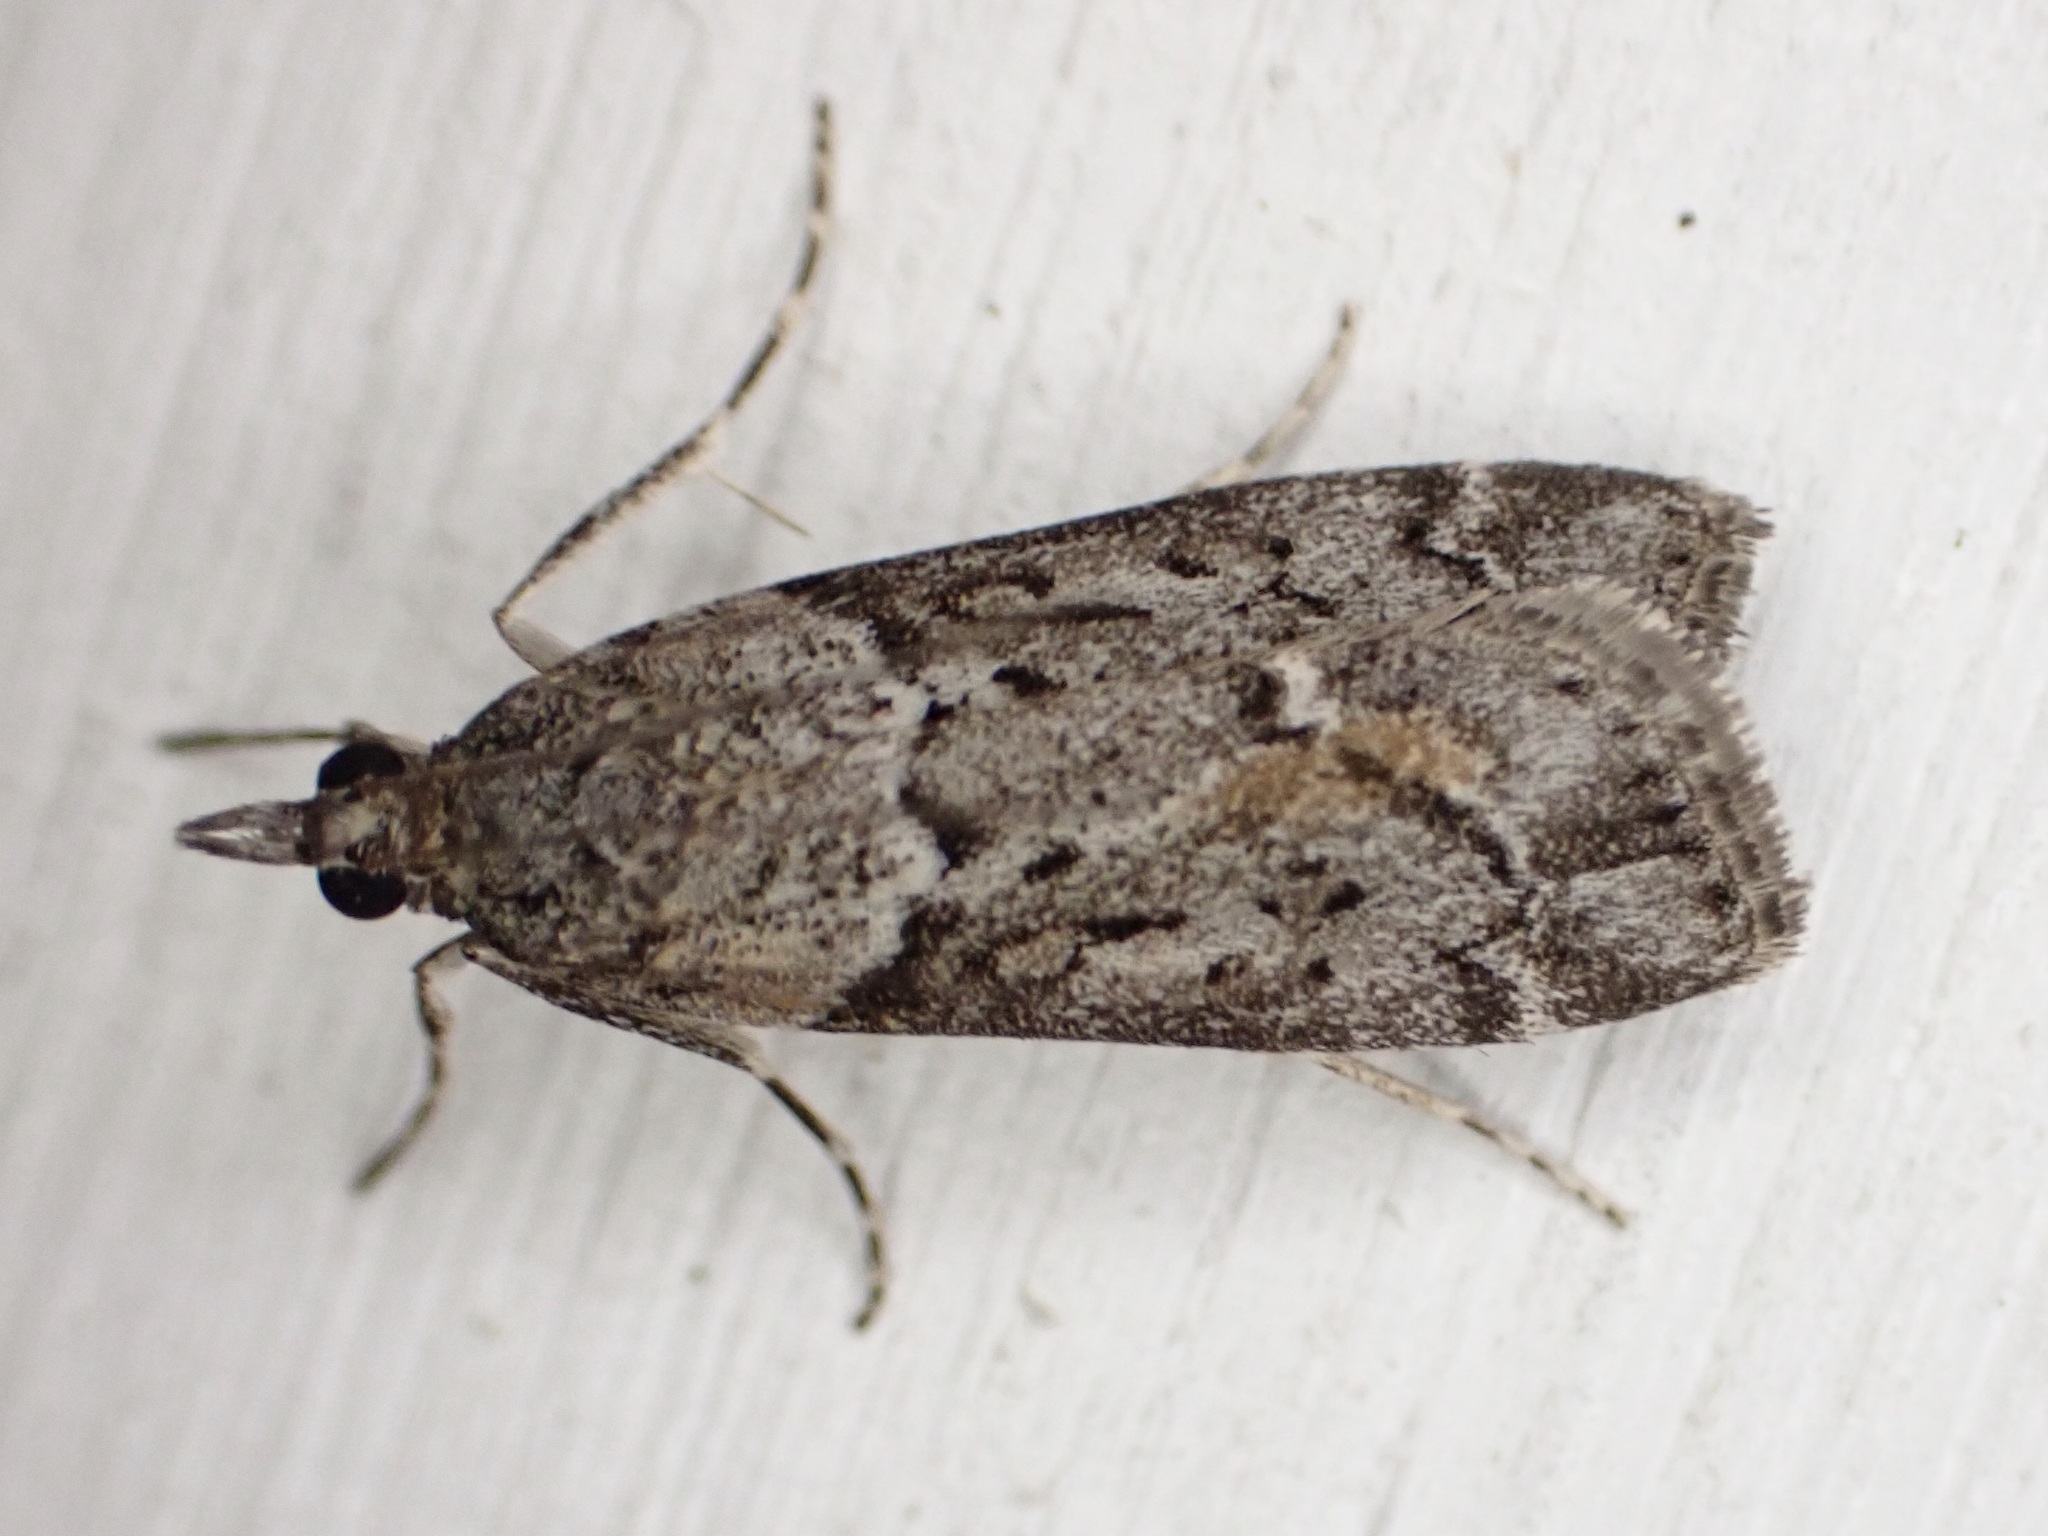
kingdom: Animalia
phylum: Arthropoda
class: Insecta
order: Lepidoptera
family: Crambidae
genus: Eudonia
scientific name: Eudonia submarginalis
